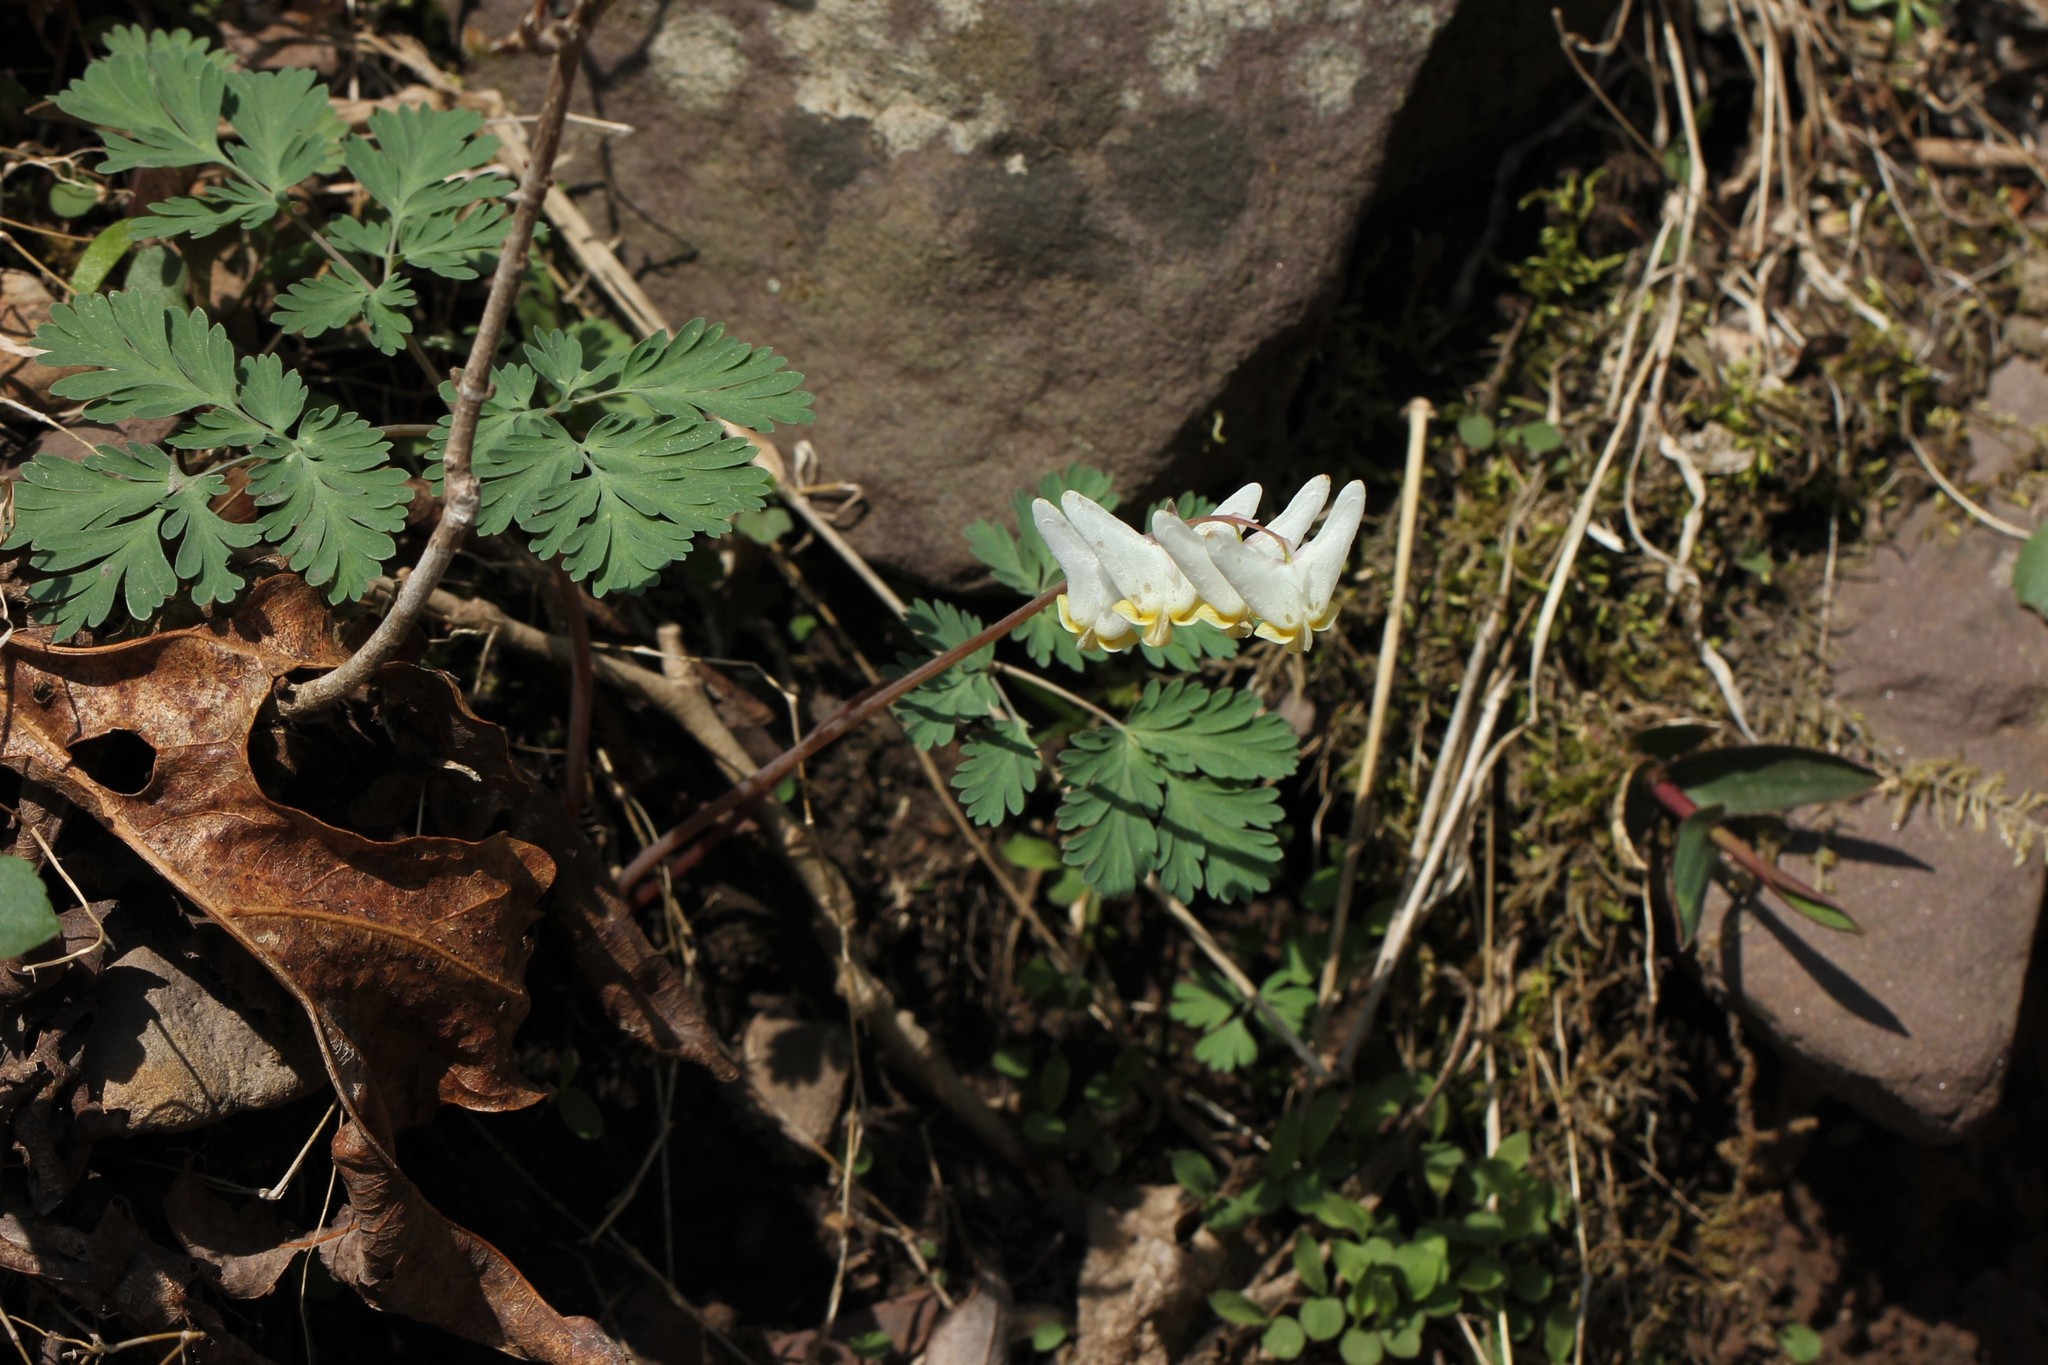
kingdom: Plantae
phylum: Tracheophyta
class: Magnoliopsida
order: Ranunculales
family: Papaveraceae
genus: Dicentra
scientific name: Dicentra cucullaria
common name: Dutchman's breeches
